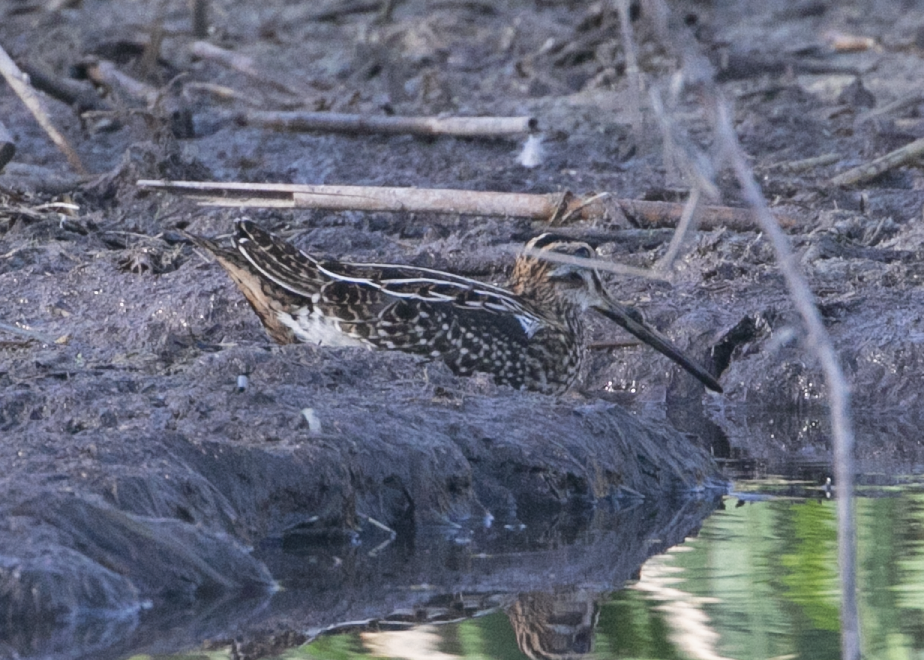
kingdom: Animalia
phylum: Chordata
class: Aves
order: Charadriiformes
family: Scolopacidae
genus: Gallinago
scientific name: Gallinago gallinago
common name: Common snipe
